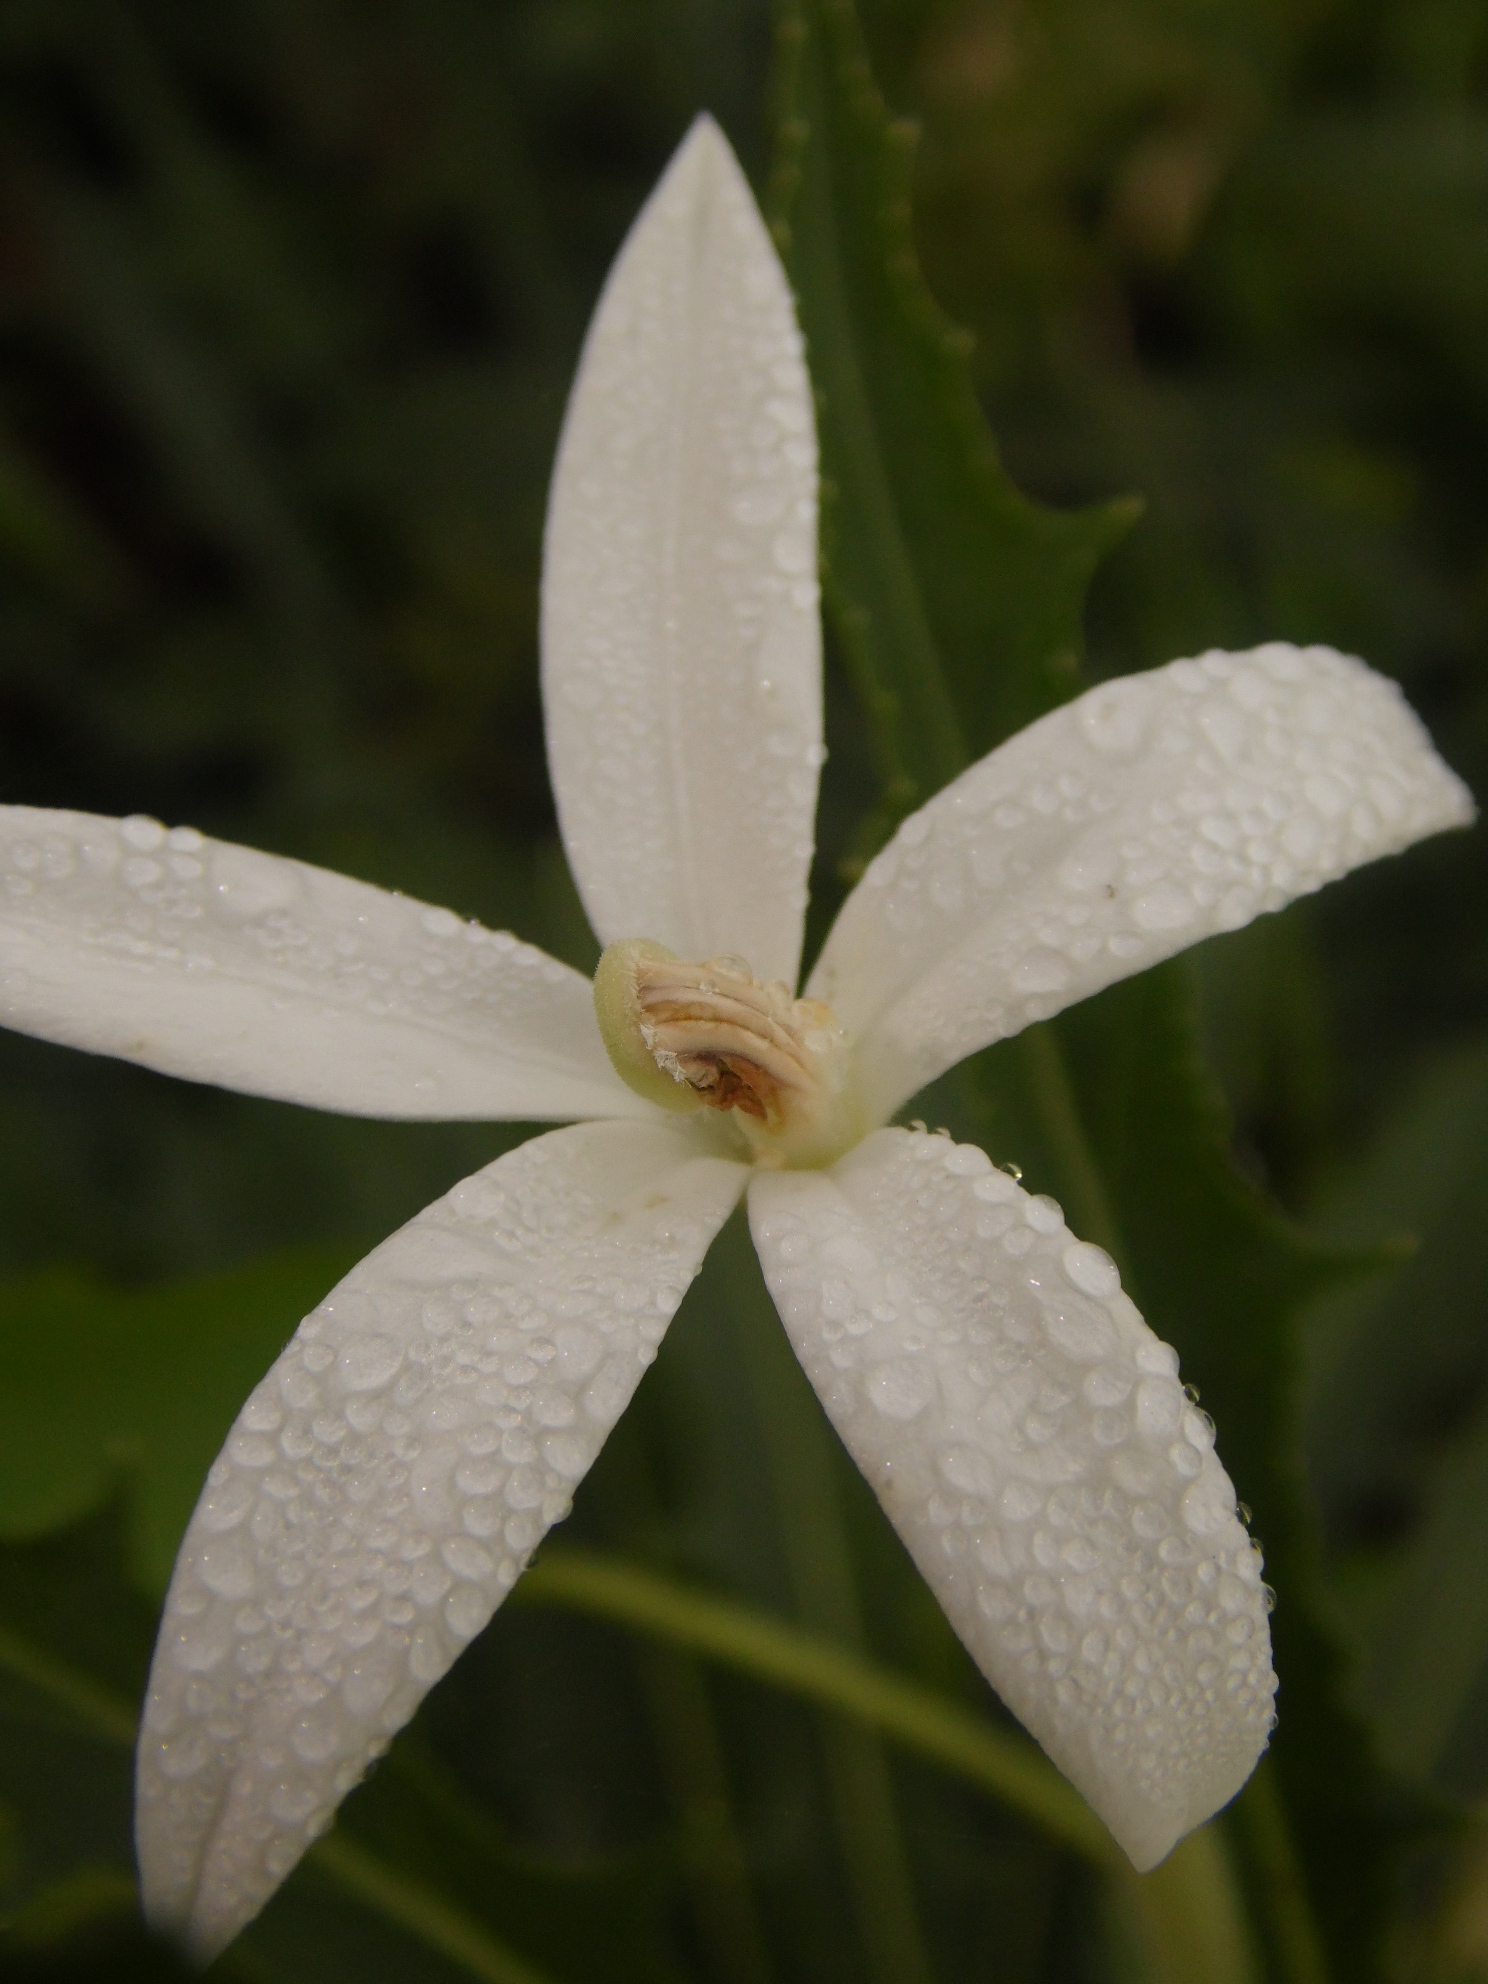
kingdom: Plantae
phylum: Tracheophyta
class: Magnoliopsida
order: Asterales
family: Campanulaceae
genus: Hippobroma
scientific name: Hippobroma longiflora
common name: Madamfate
